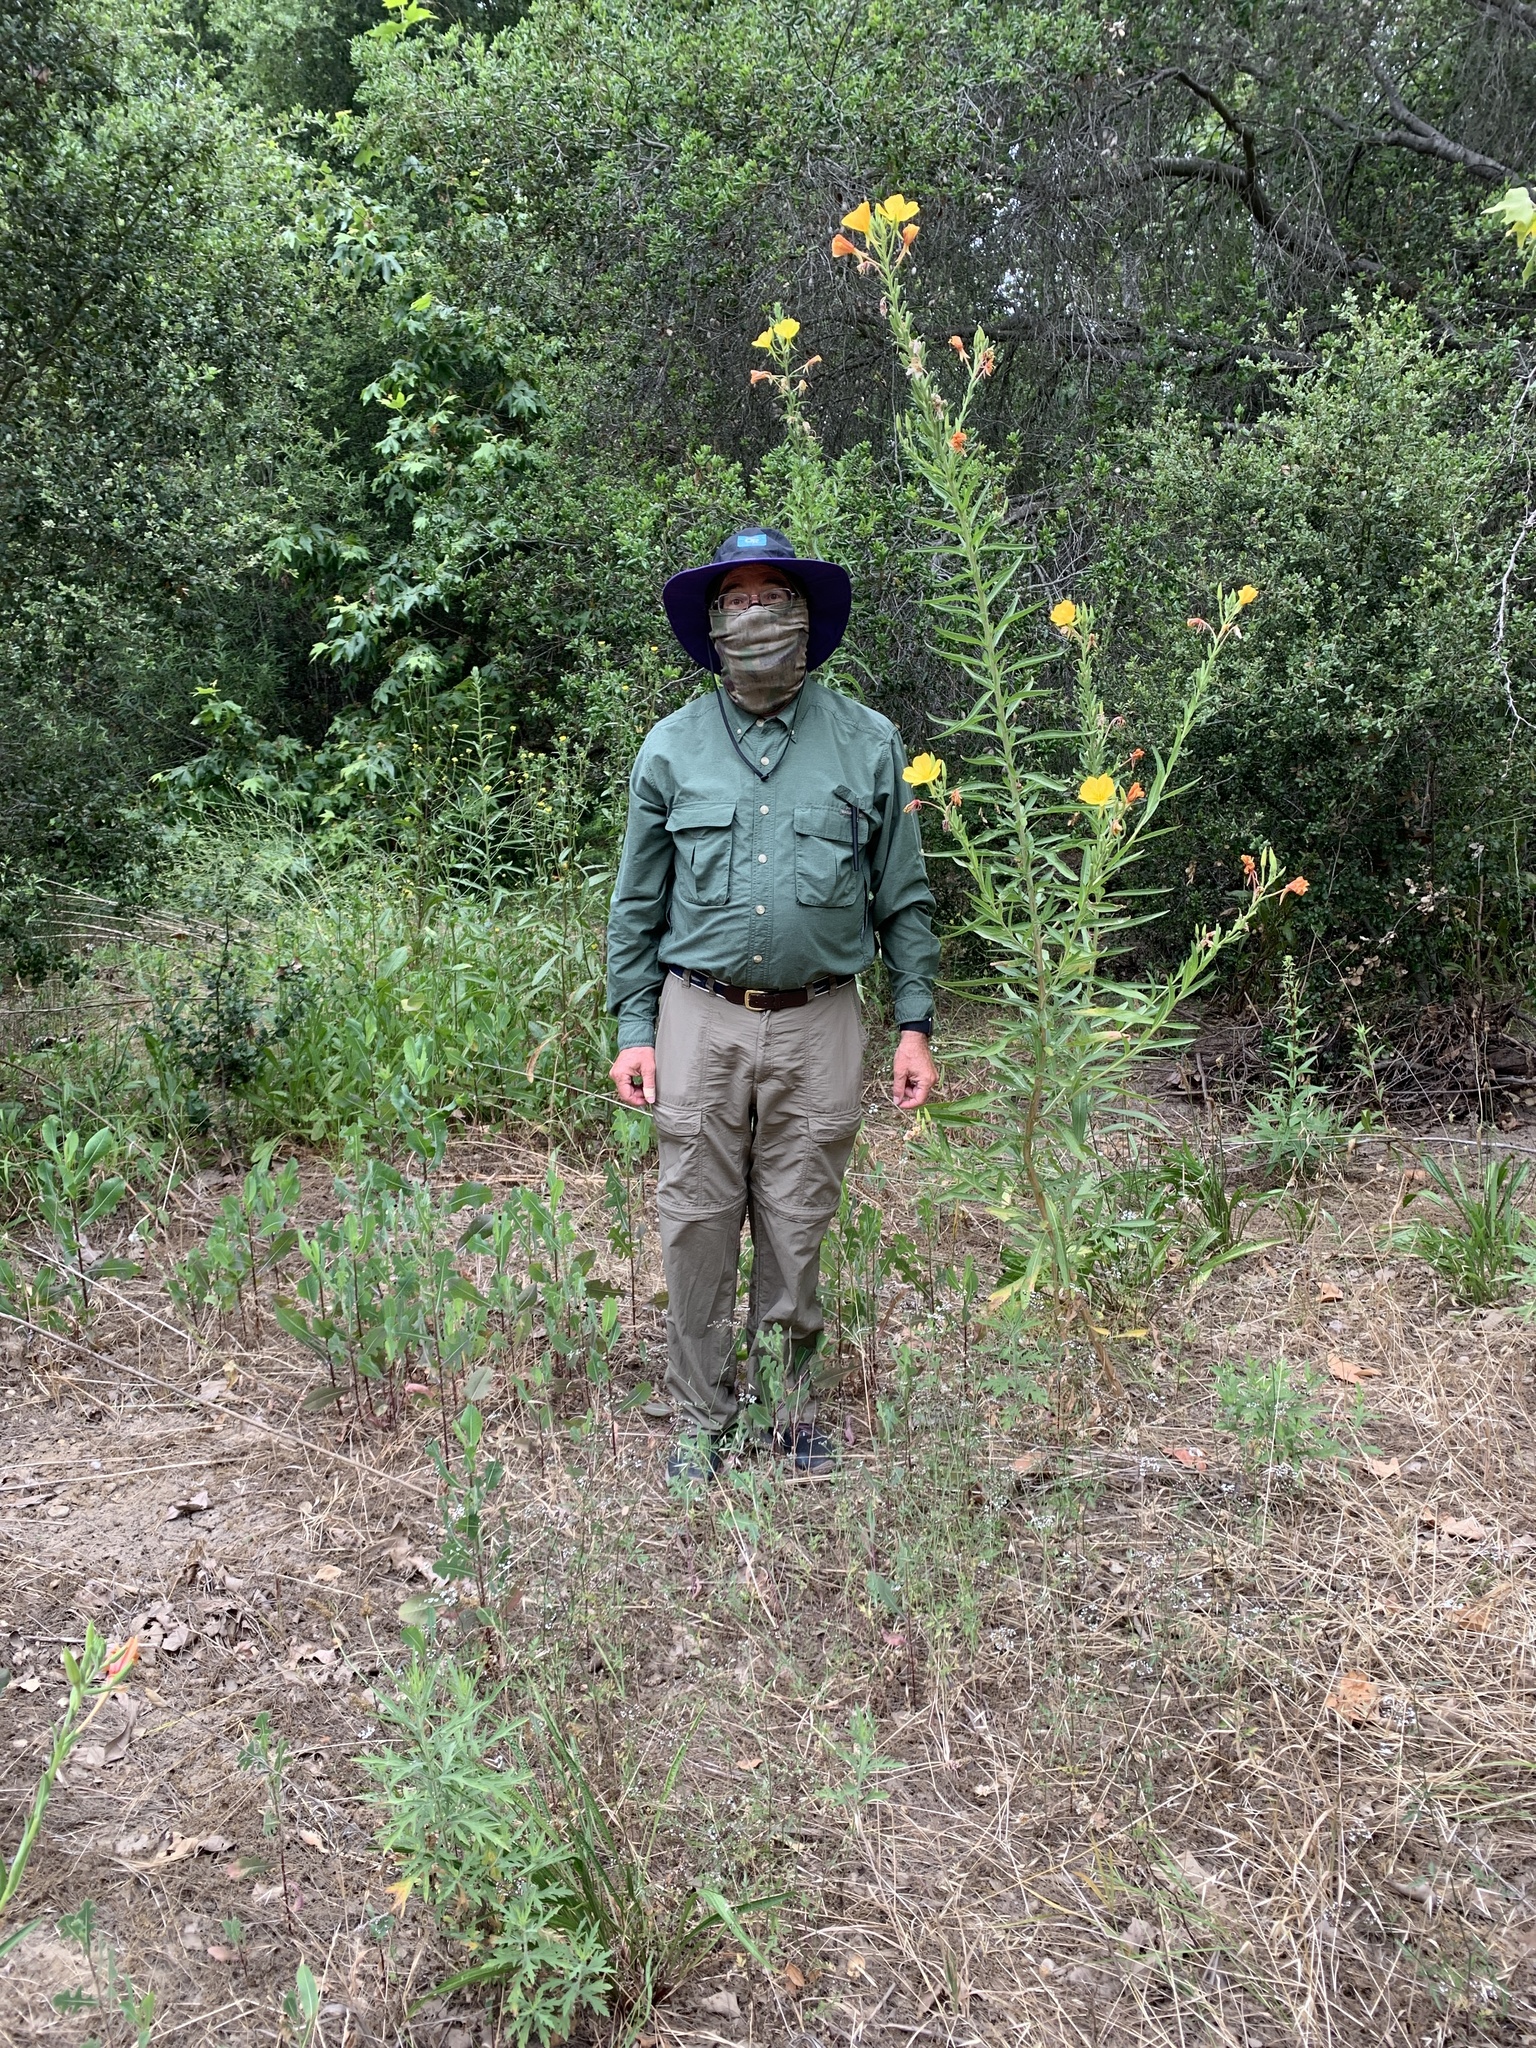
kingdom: Plantae
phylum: Tracheophyta
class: Magnoliopsida
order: Myrtales
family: Onagraceae
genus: Oenothera
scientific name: Oenothera elata
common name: Hooker's evening-primrose
